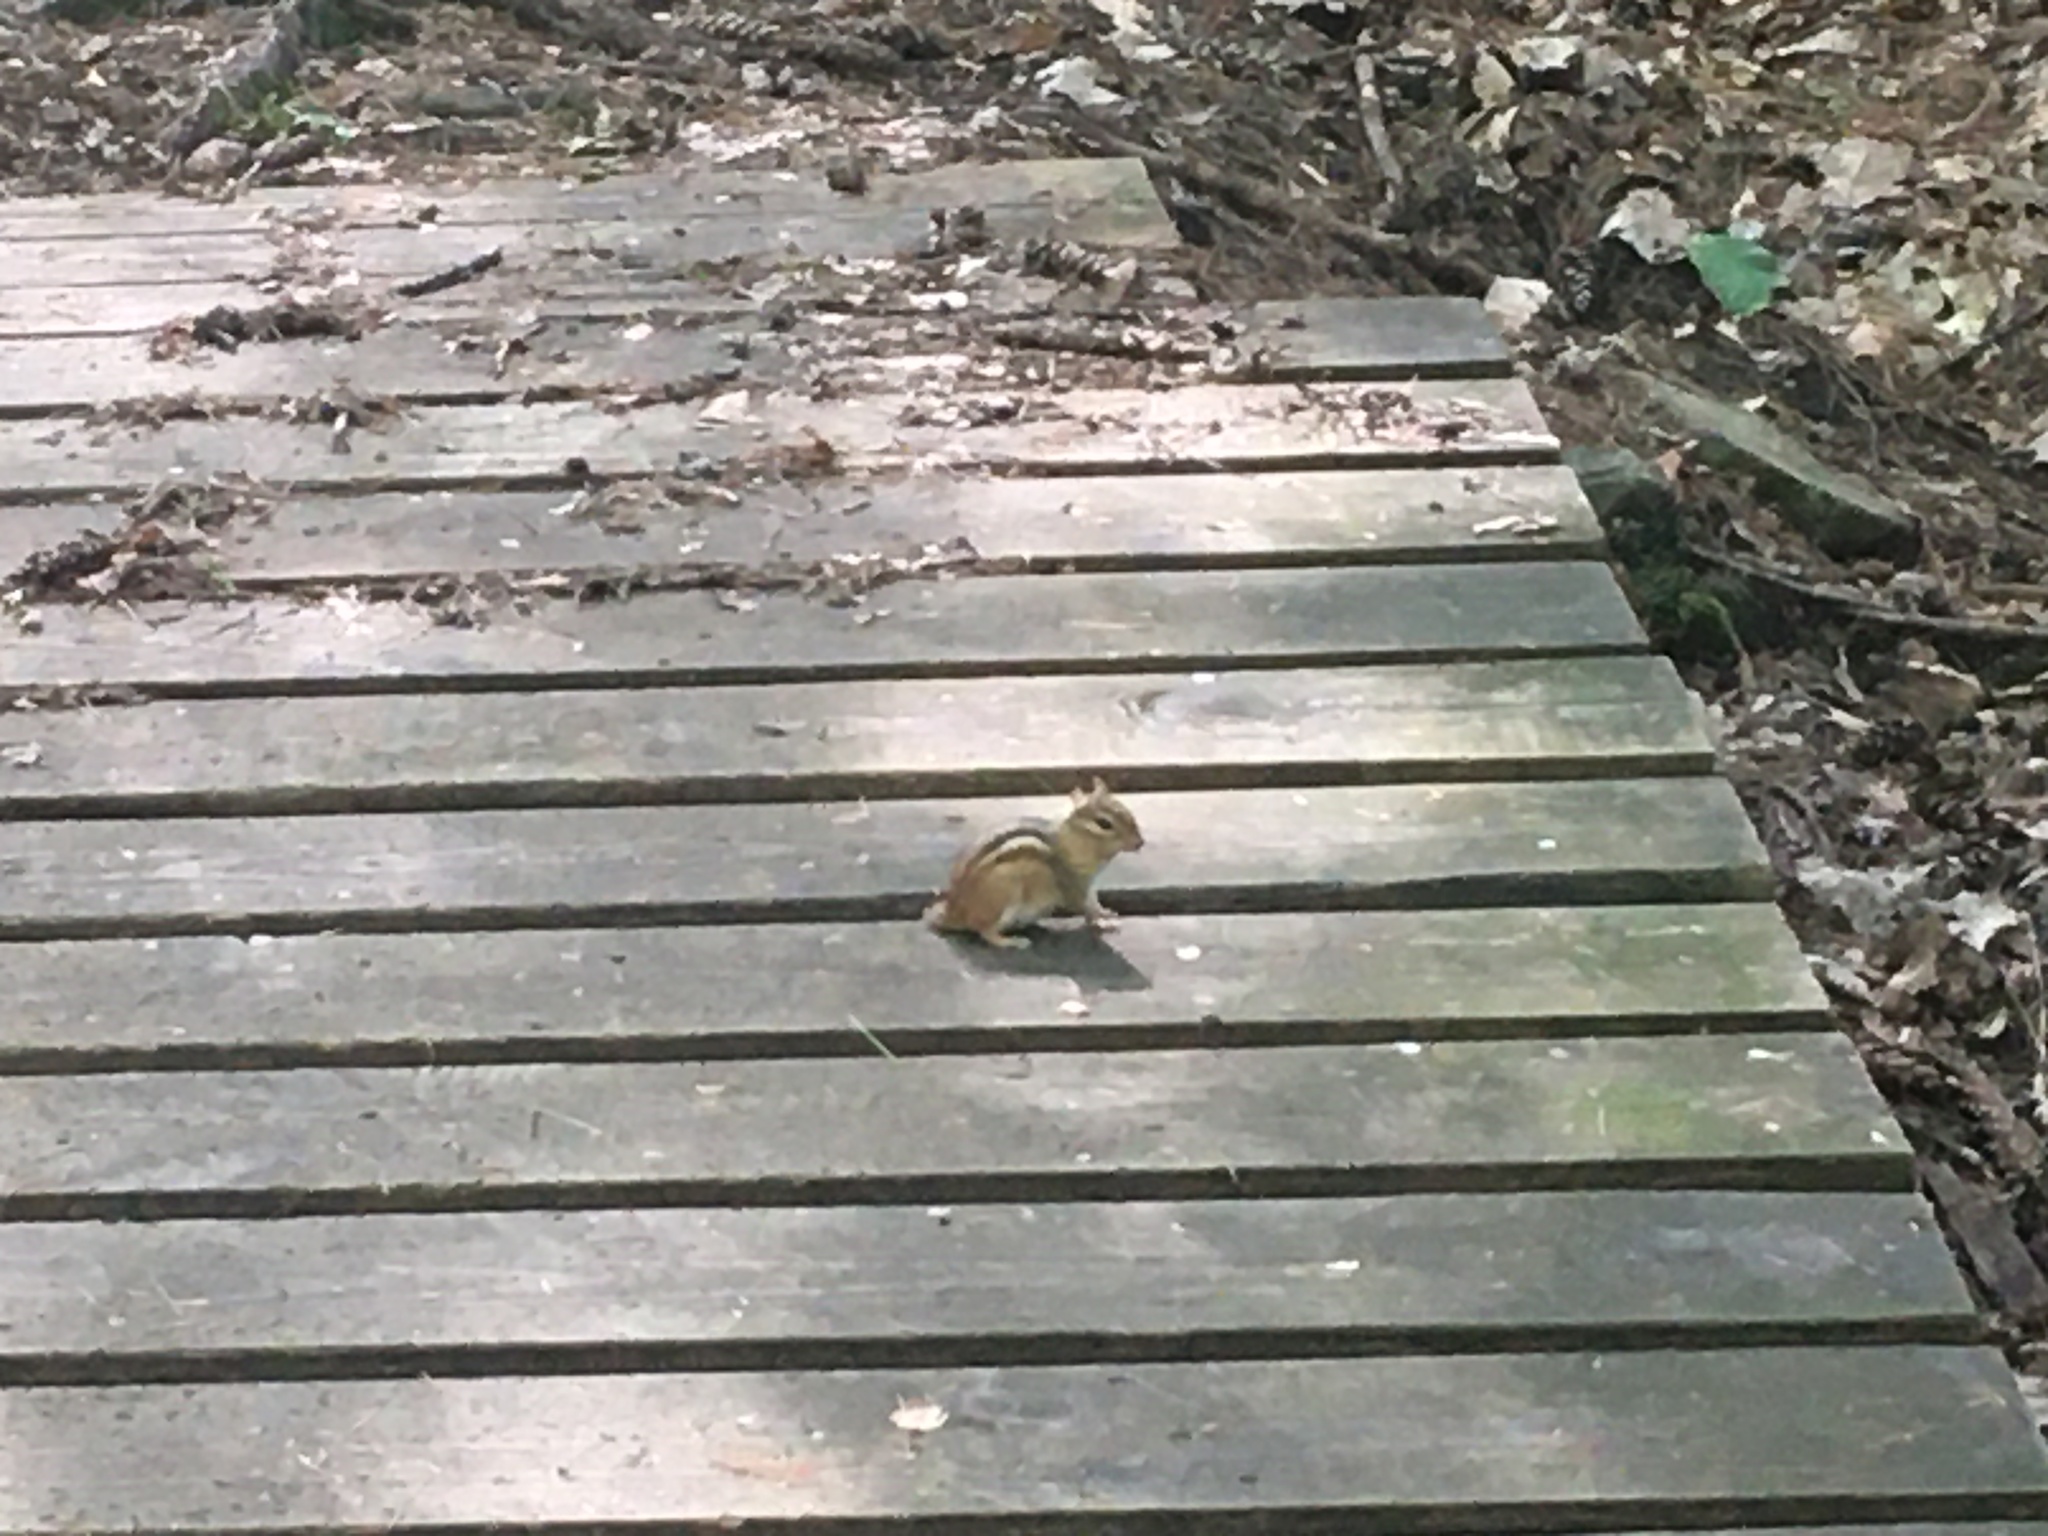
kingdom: Animalia
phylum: Chordata
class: Mammalia
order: Rodentia
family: Sciuridae
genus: Tamias
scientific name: Tamias striatus
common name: Eastern chipmunk
